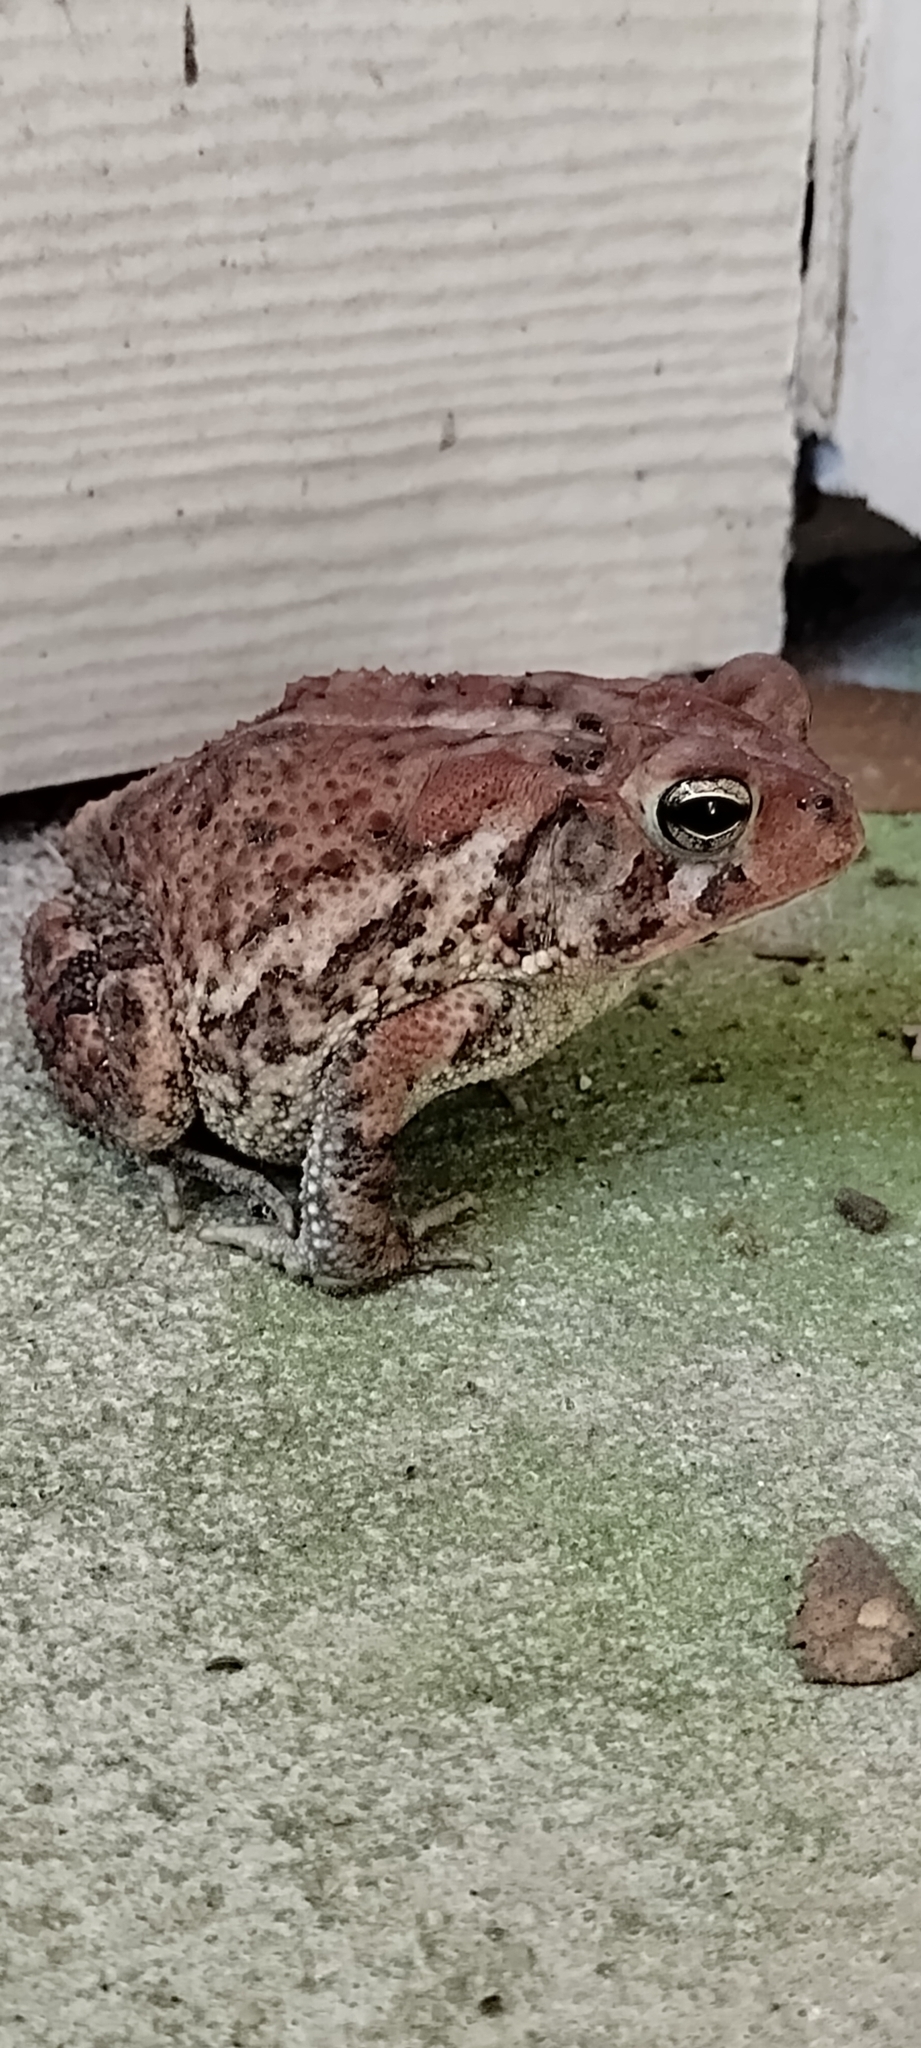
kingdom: Animalia
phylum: Chordata
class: Amphibia
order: Anura
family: Bufonidae
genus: Anaxyrus
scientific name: Anaxyrus terrestris
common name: Southern toad
